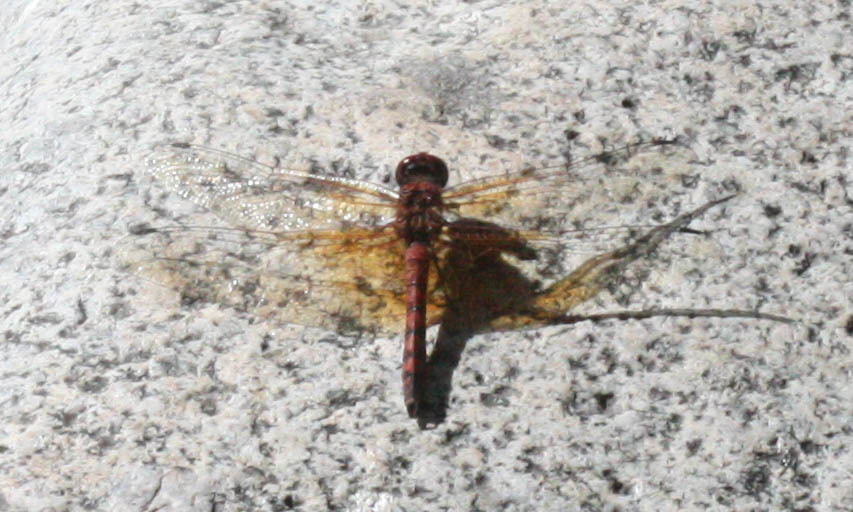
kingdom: Animalia
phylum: Arthropoda
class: Insecta
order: Odonata
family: Libellulidae
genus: Paltothemis
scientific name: Paltothemis lineatipes
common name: Red rock skimmer
